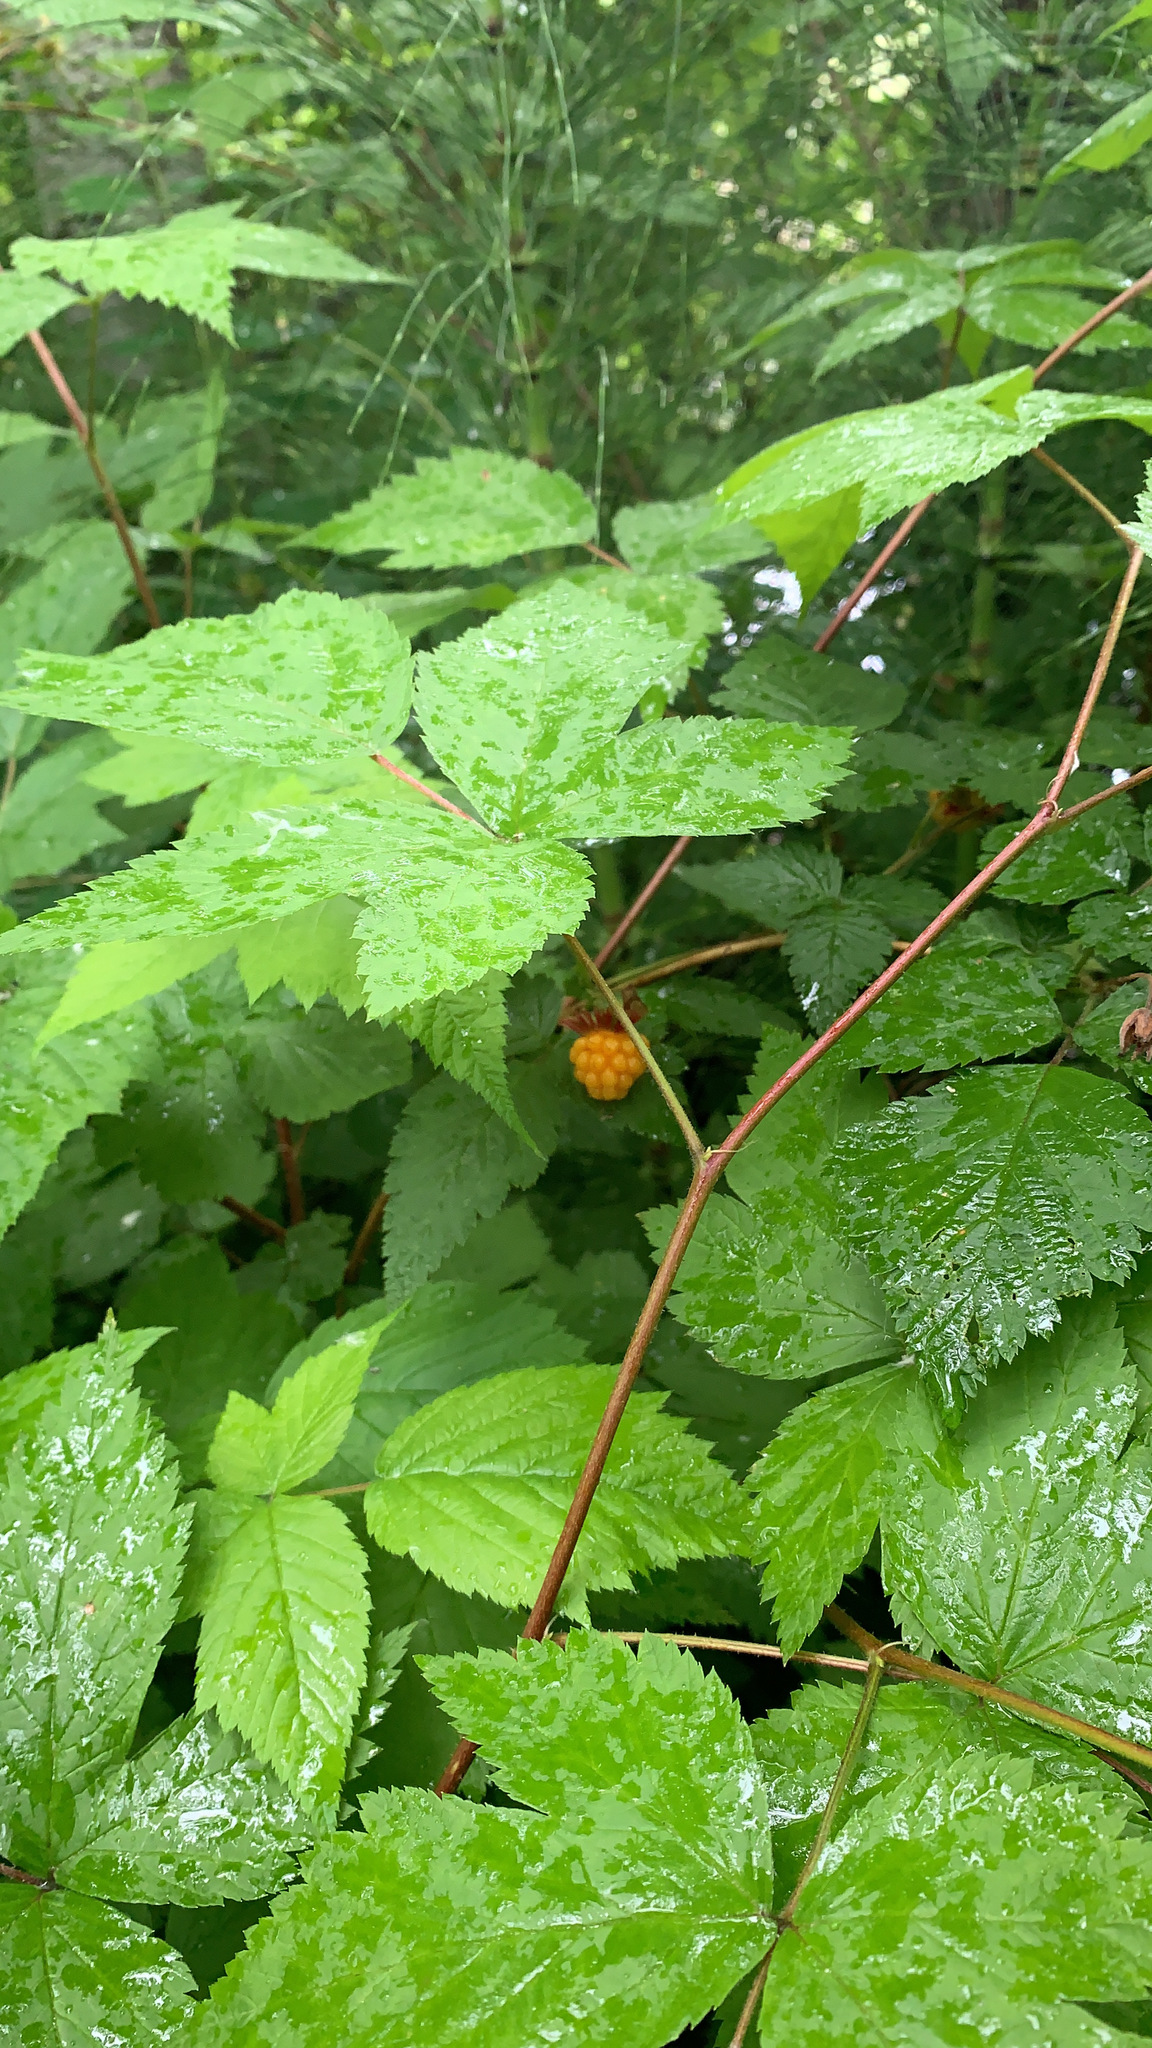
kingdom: Plantae
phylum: Tracheophyta
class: Magnoliopsida
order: Rosales
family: Rosaceae
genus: Rubus
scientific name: Rubus spectabilis
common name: Salmonberry
